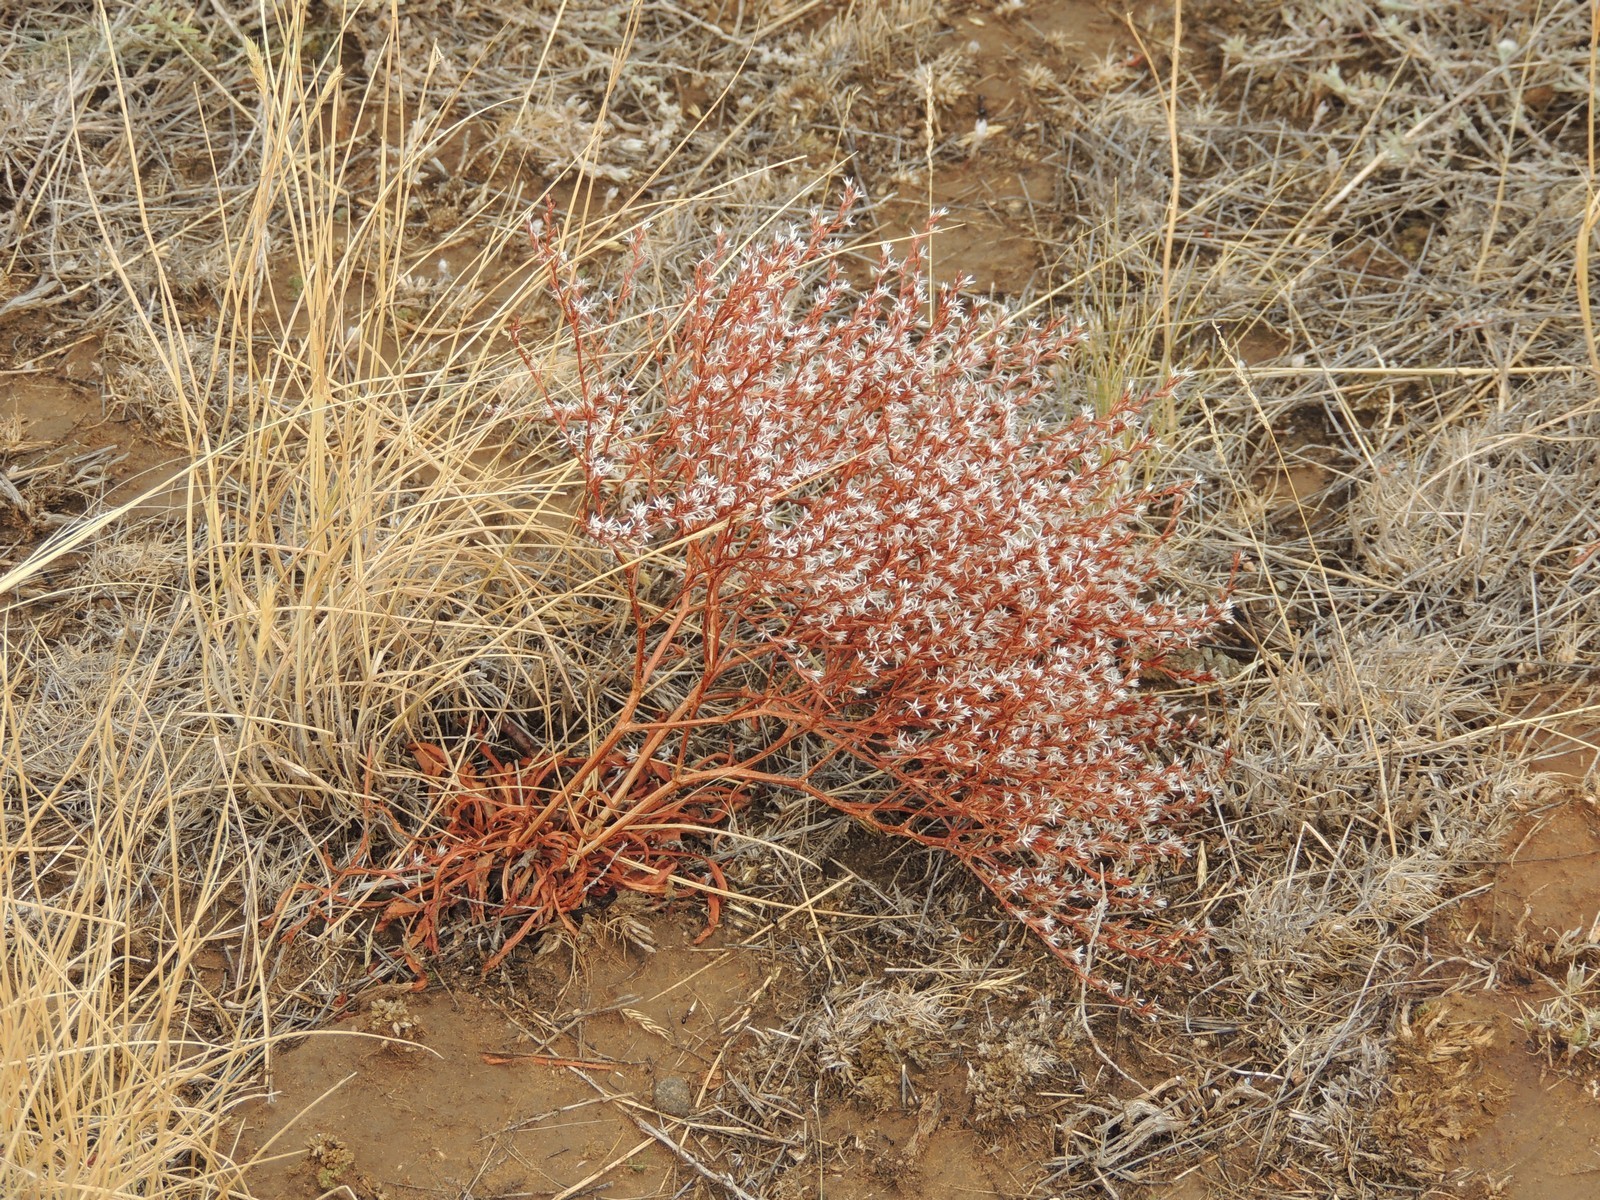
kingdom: Plantae
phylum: Tracheophyta
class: Magnoliopsida
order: Caryophyllales
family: Plumbaginaceae
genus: Goniolimon
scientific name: Goniolimon rubellum
